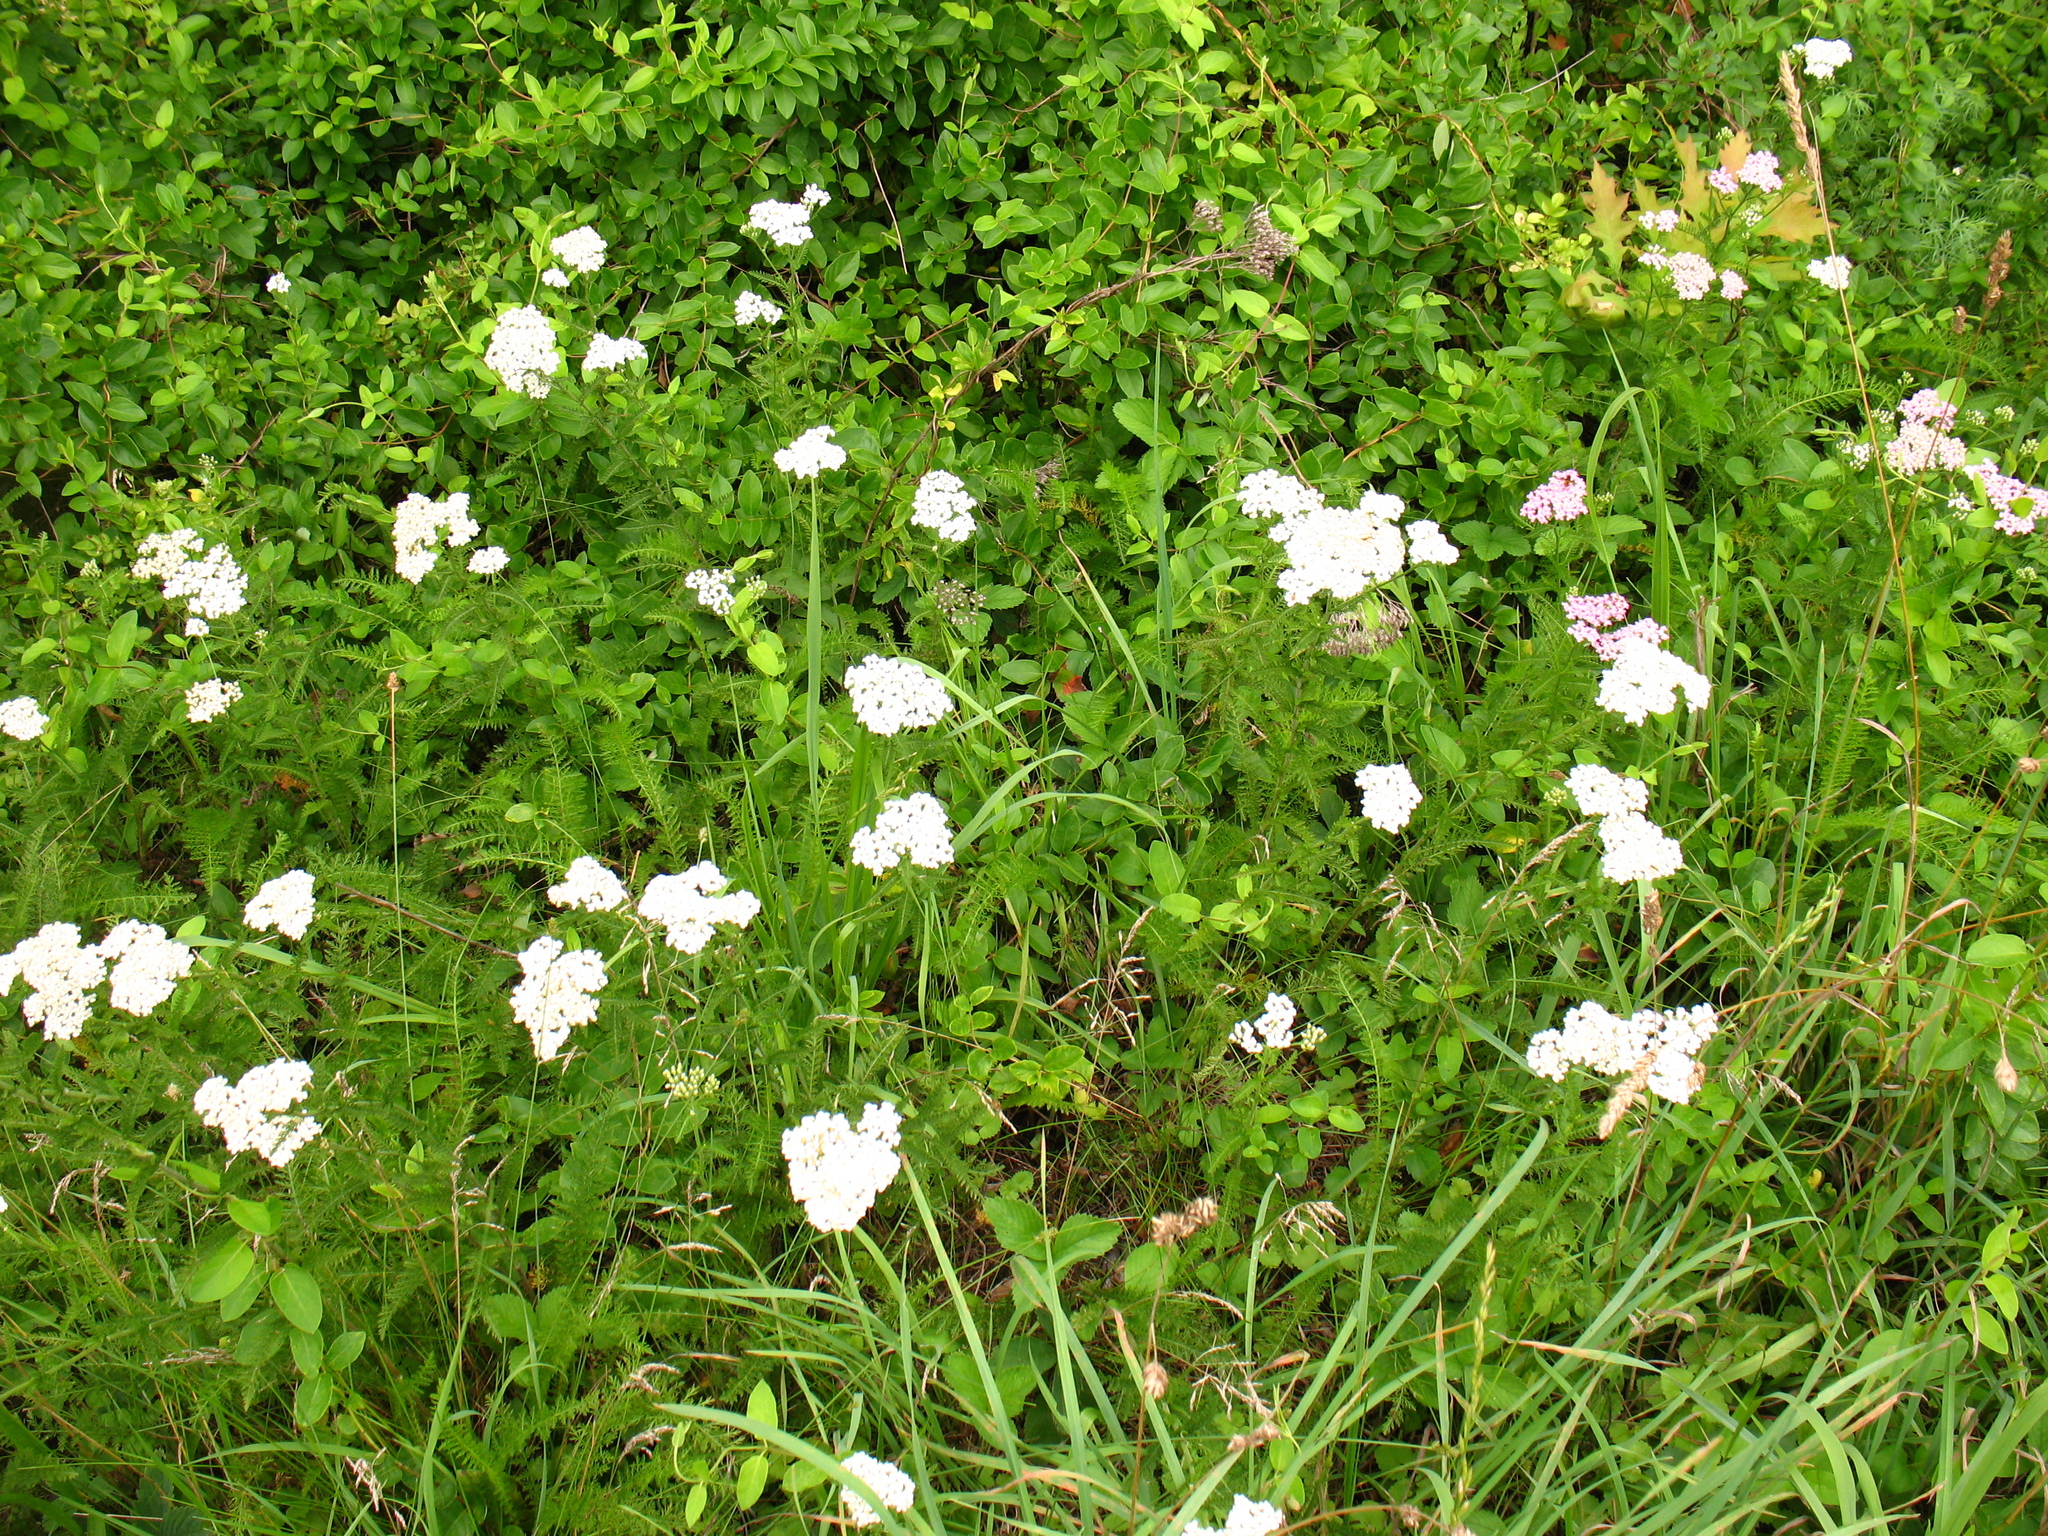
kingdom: Plantae
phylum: Tracheophyta
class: Magnoliopsida
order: Asterales
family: Asteraceae
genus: Achillea
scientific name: Achillea millefolium
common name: Yarrow
